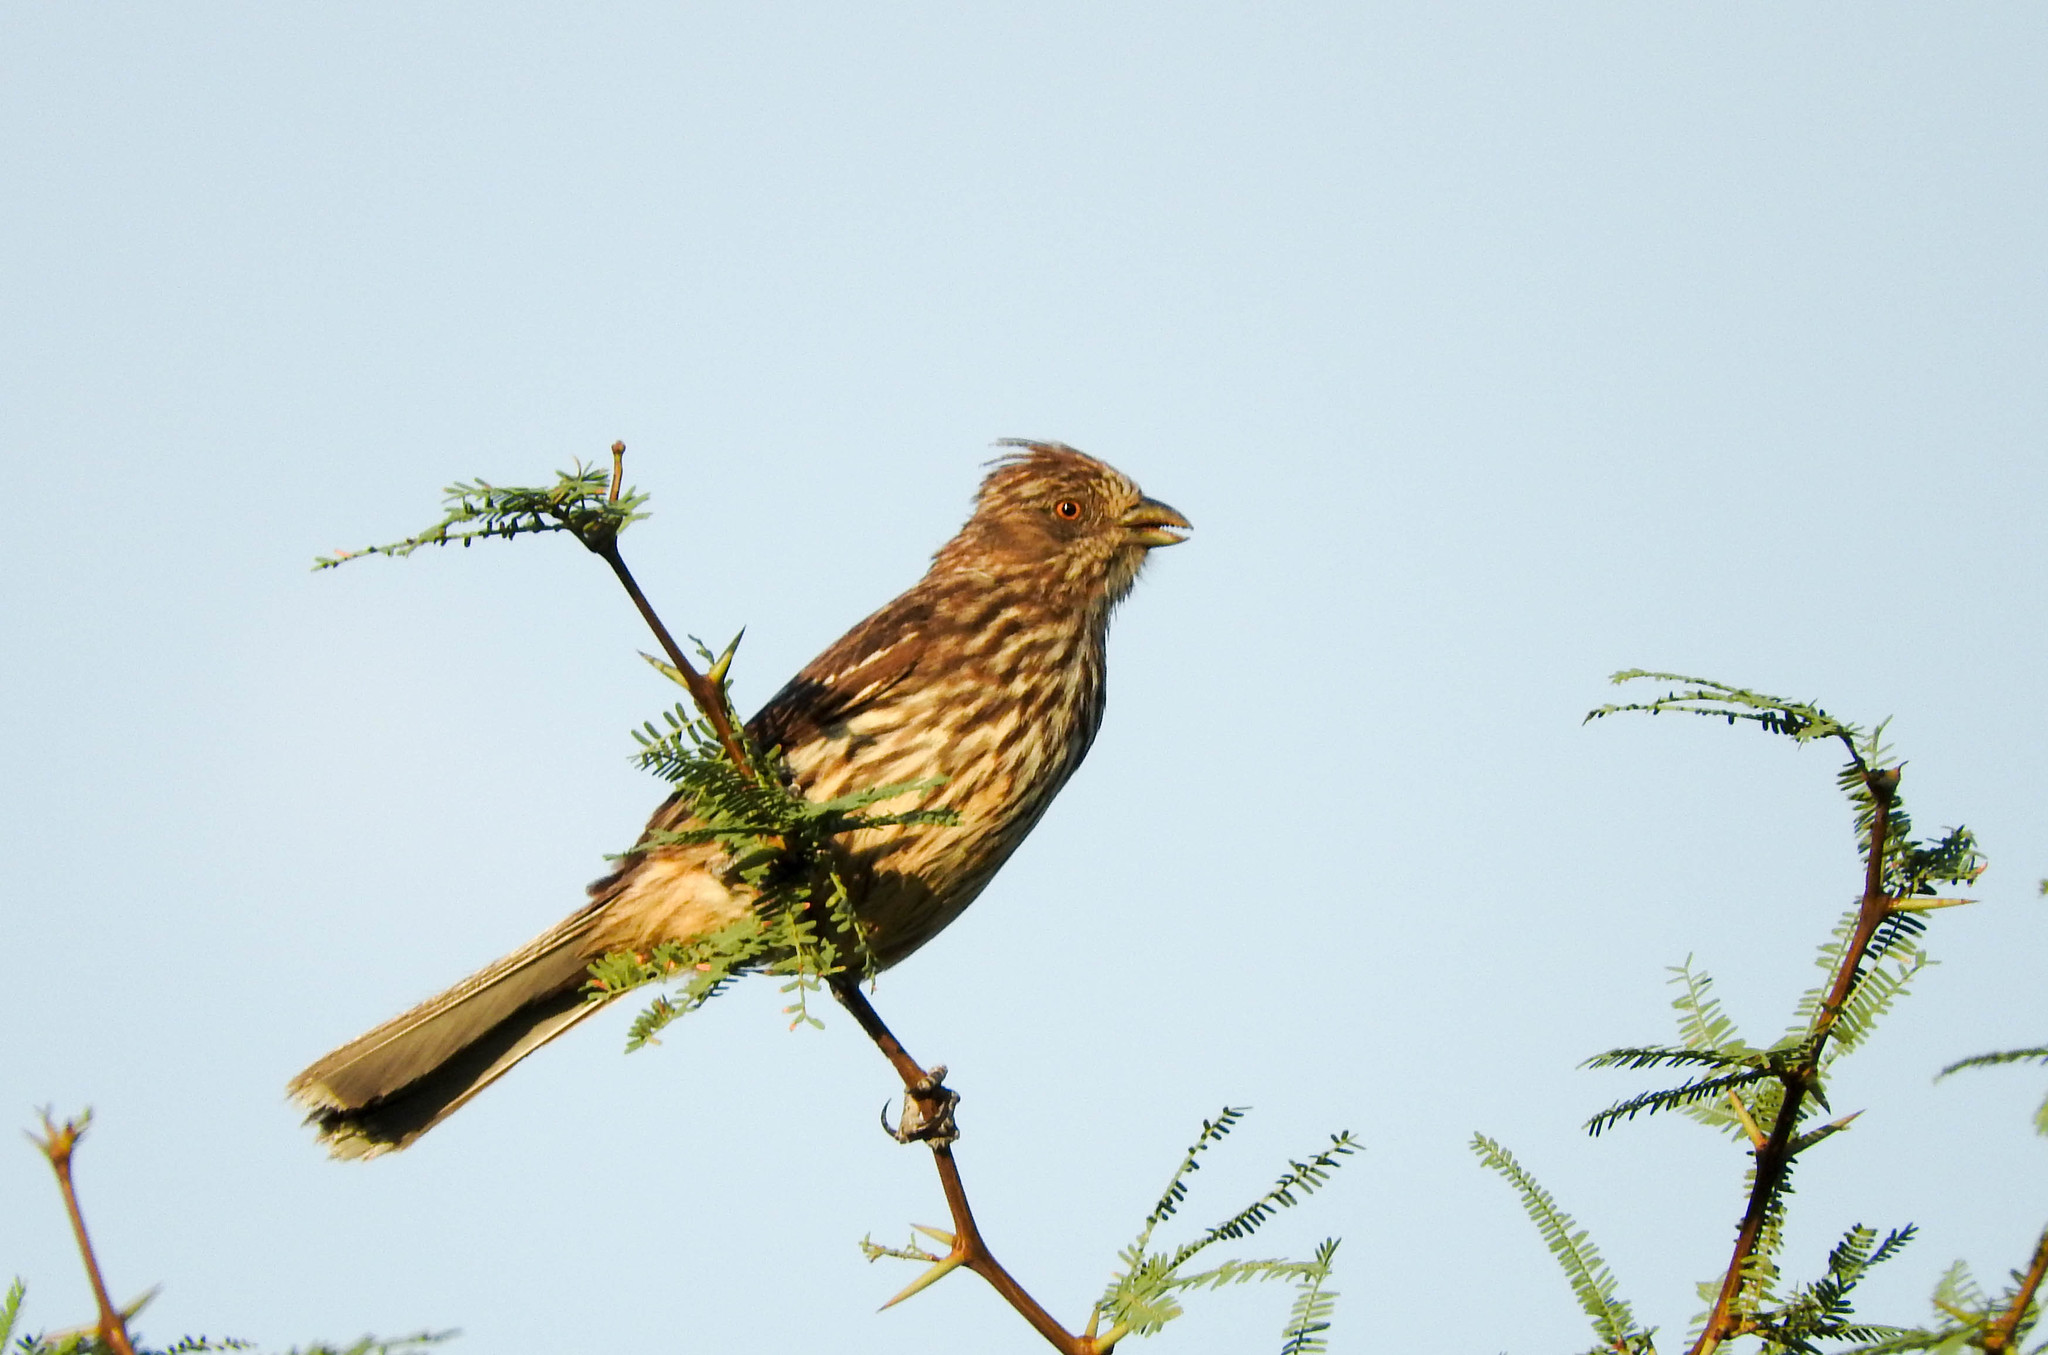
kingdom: Animalia
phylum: Chordata
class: Aves
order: Passeriformes
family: Cotingidae
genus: Phytotoma
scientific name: Phytotoma rutila
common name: White-tipped plantcutter
